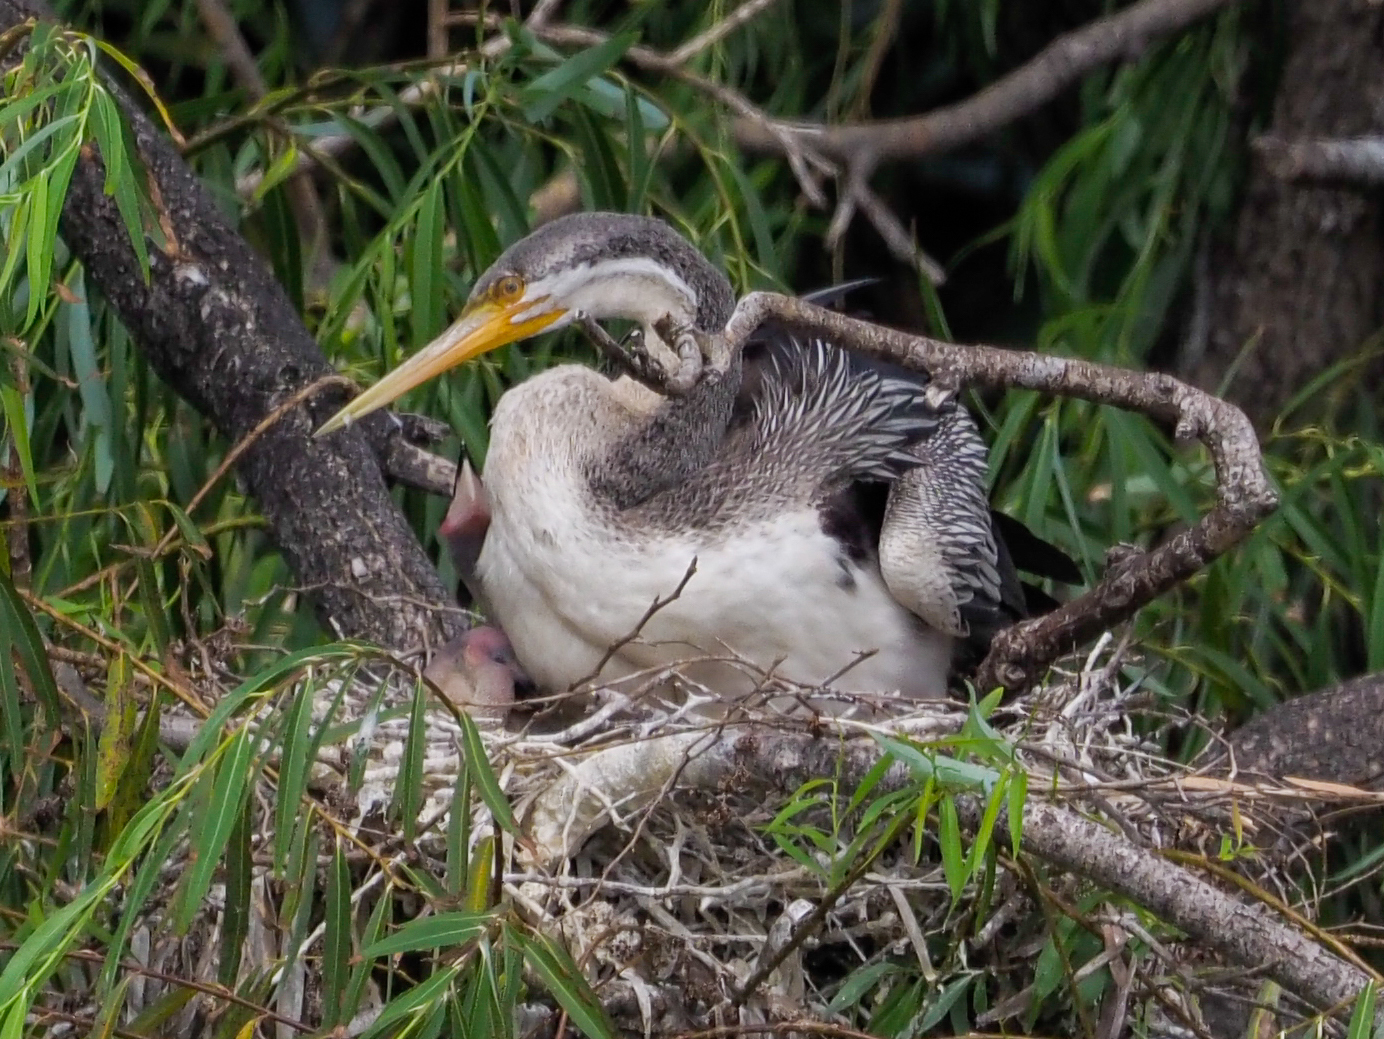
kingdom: Animalia
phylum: Chordata
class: Aves
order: Suliformes
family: Anhingidae
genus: Anhinga
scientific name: Anhinga novaehollandiae
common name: Australasian darter
